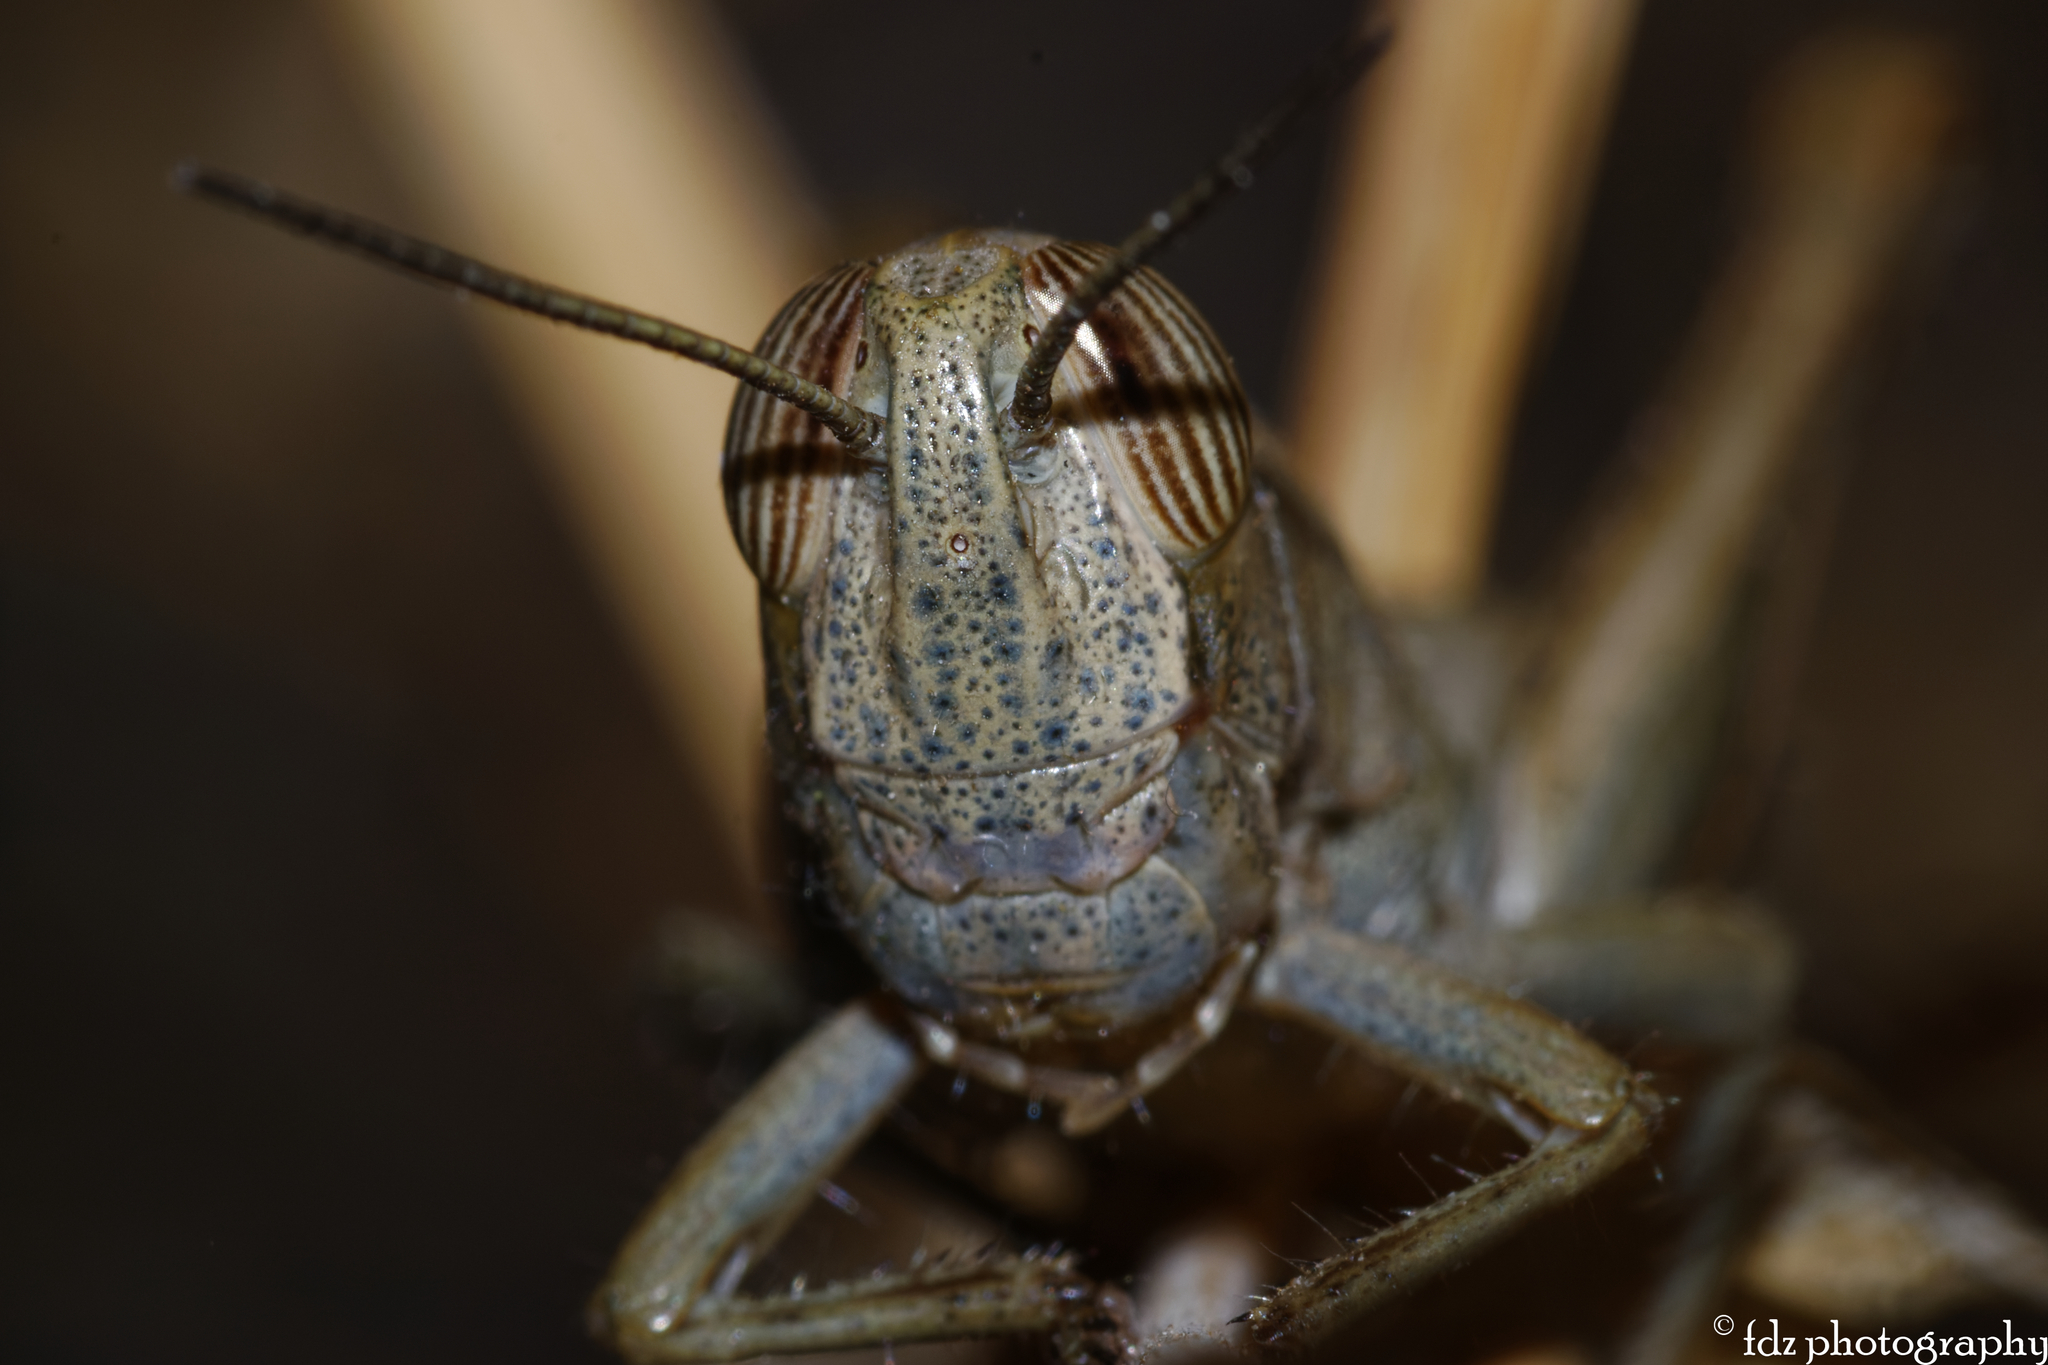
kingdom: Animalia
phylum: Arthropoda
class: Insecta
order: Orthoptera
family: Acrididae
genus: Anacridium
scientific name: Anacridium aegyptium
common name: Egyptian grasshopper
